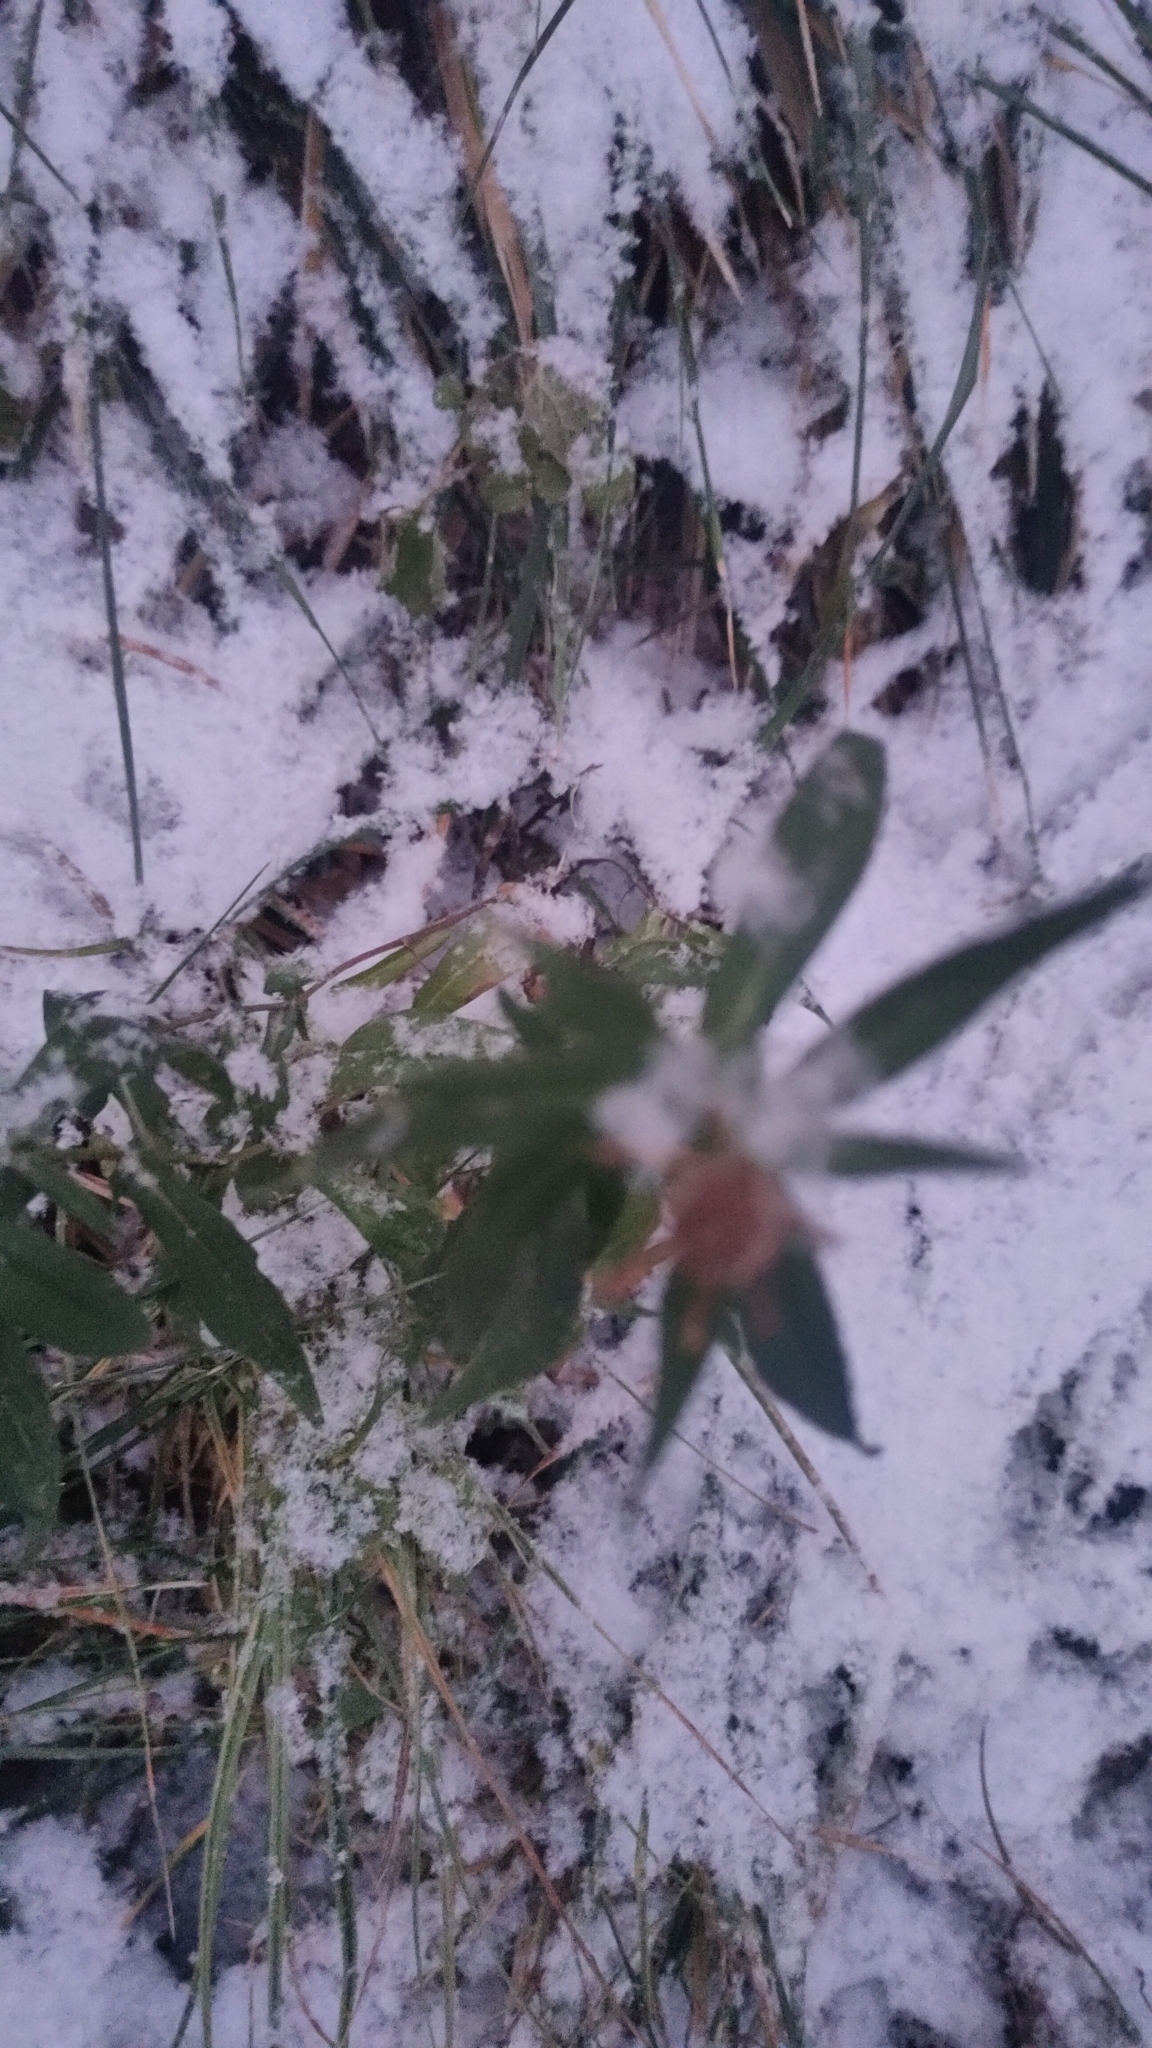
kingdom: Plantae
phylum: Tracheophyta
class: Magnoliopsida
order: Asterales
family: Asteraceae
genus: Artemisia
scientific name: Artemisia vulgaris
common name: Mugwort
